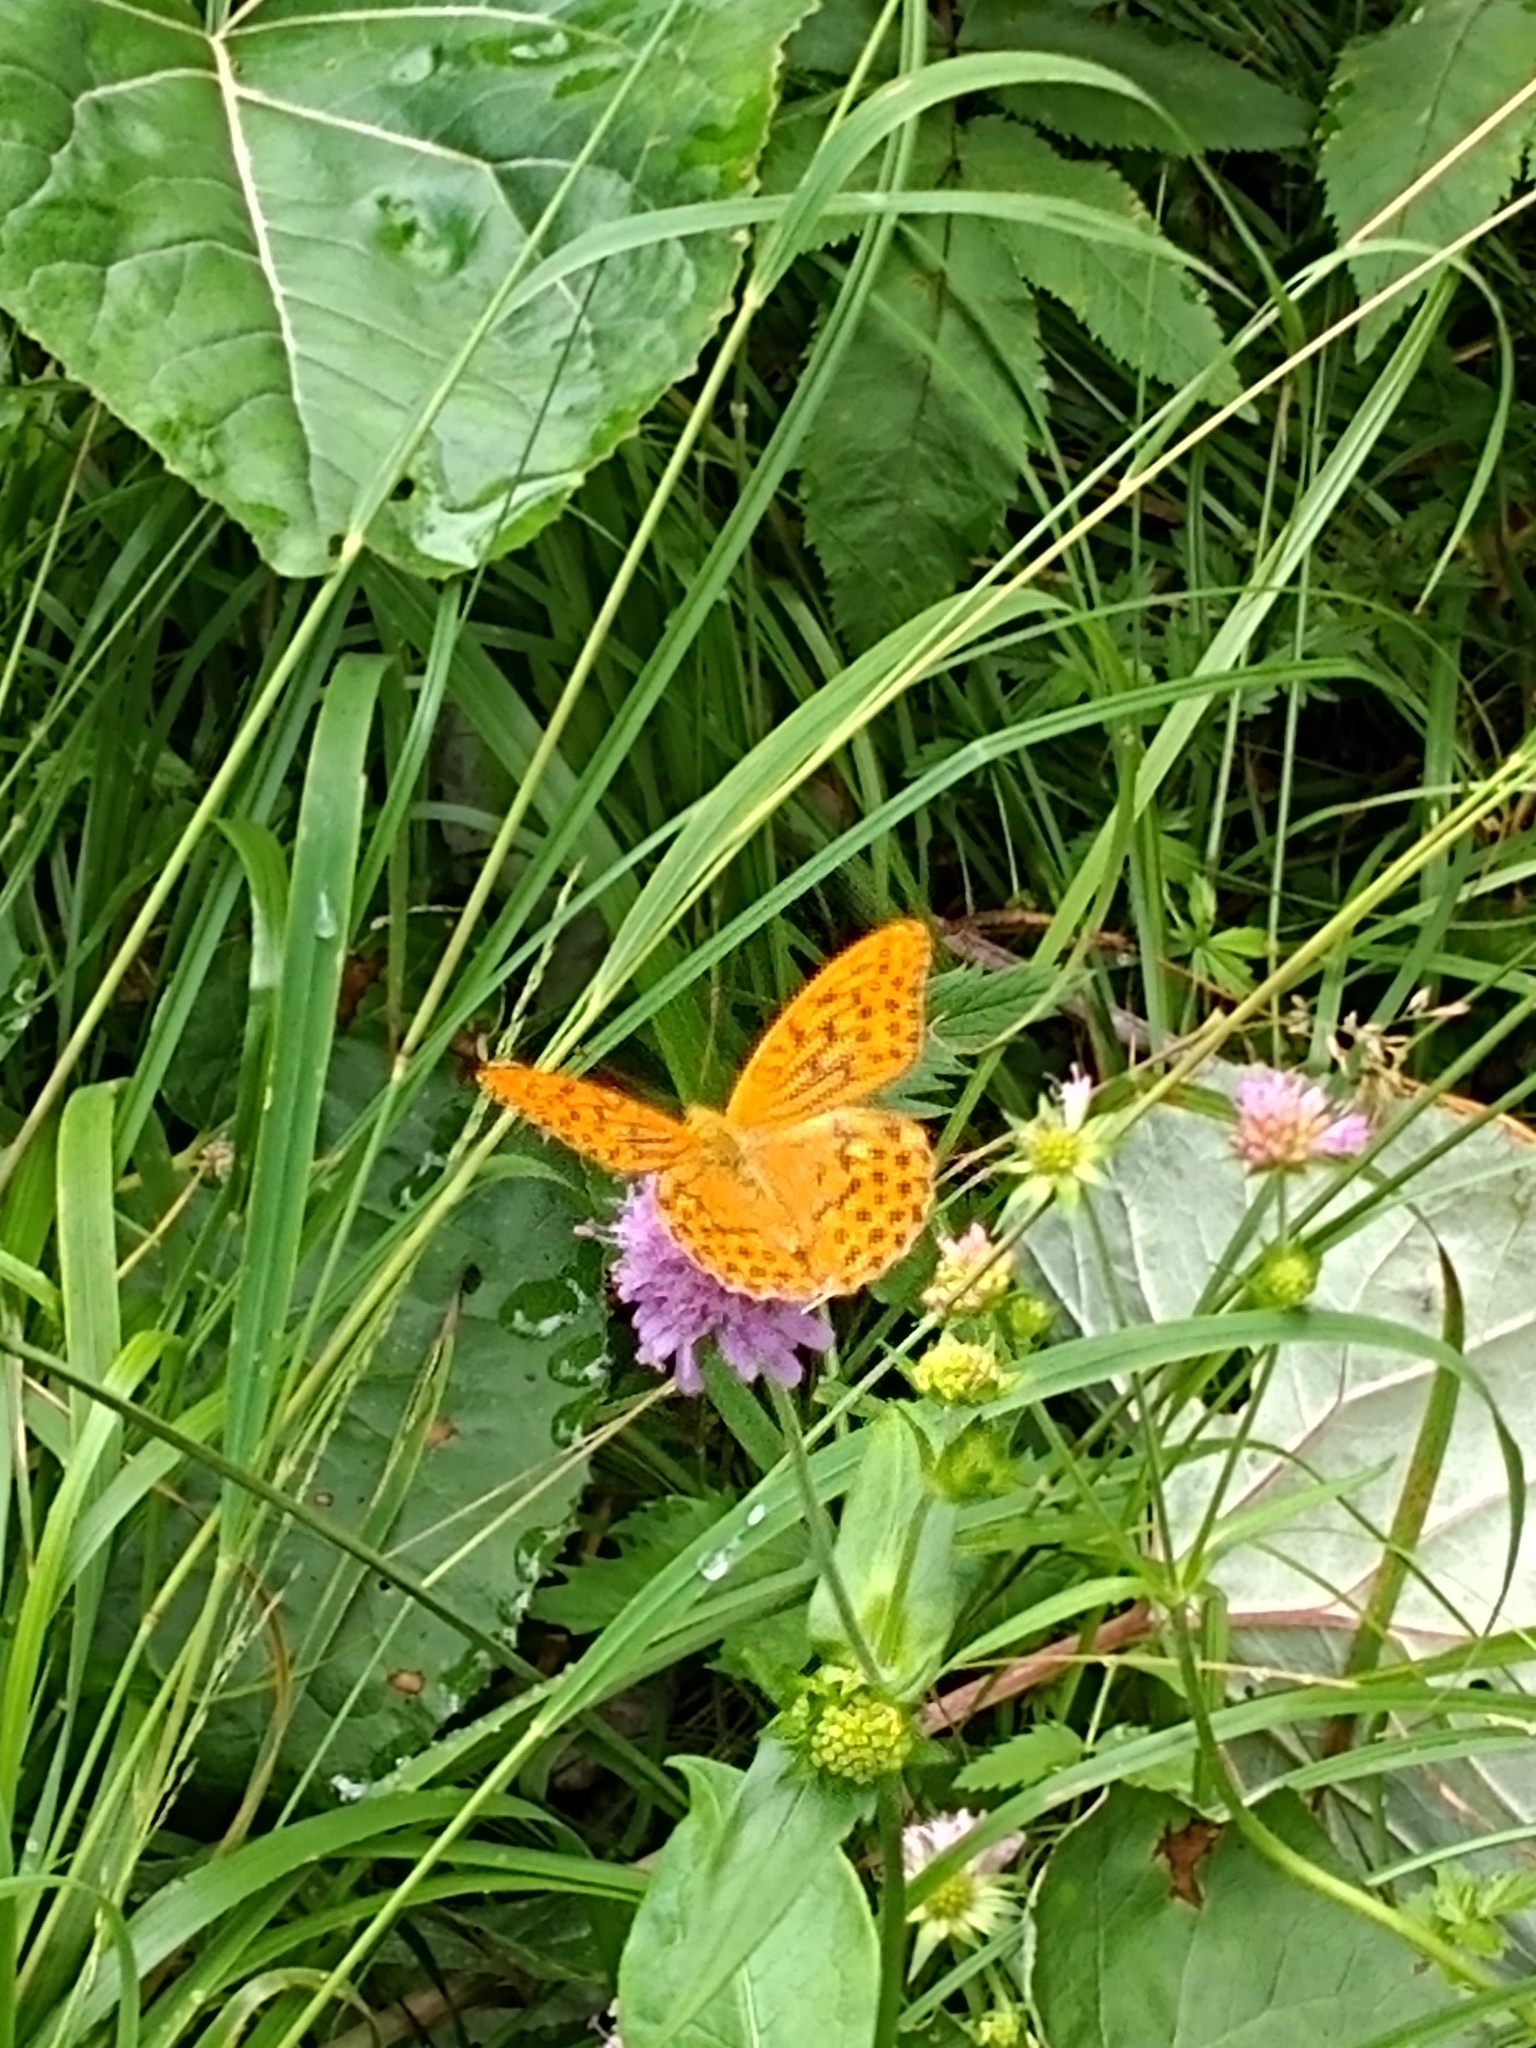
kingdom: Animalia
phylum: Arthropoda
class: Insecta
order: Lepidoptera
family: Nymphalidae
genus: Argynnis
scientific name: Argynnis paphia
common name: Silver-washed fritillary
